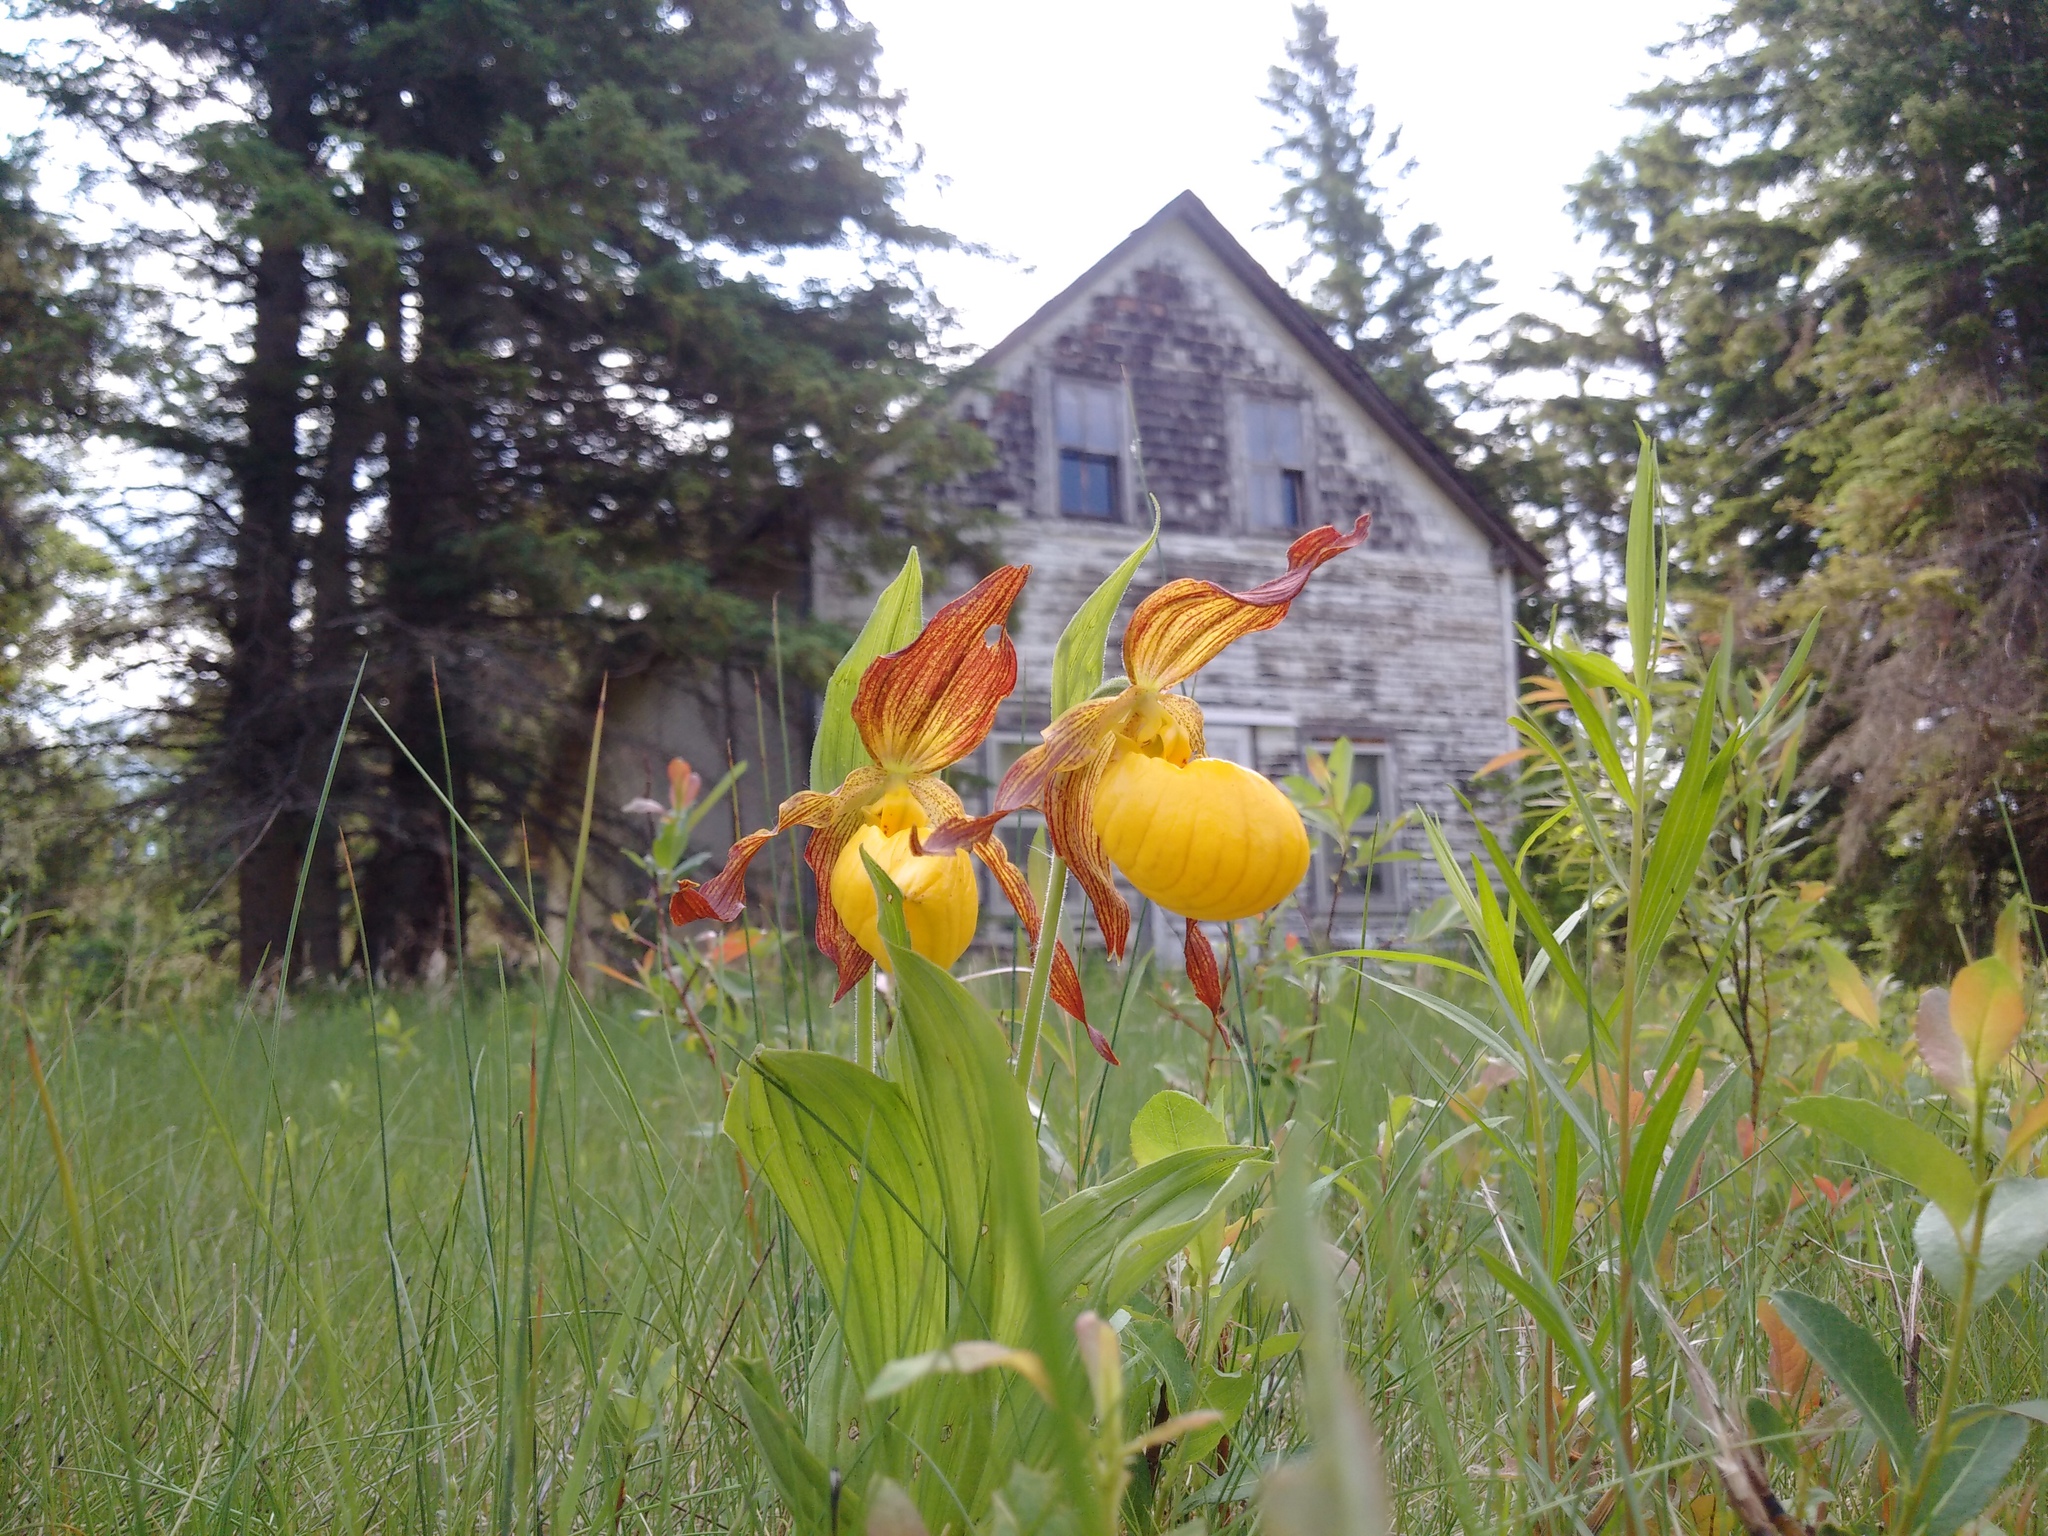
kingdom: Plantae
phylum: Tracheophyta
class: Liliopsida
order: Asparagales
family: Orchidaceae
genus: Cypripedium
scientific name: Cypripedium parviflorum
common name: American yellow lady's-slipper
